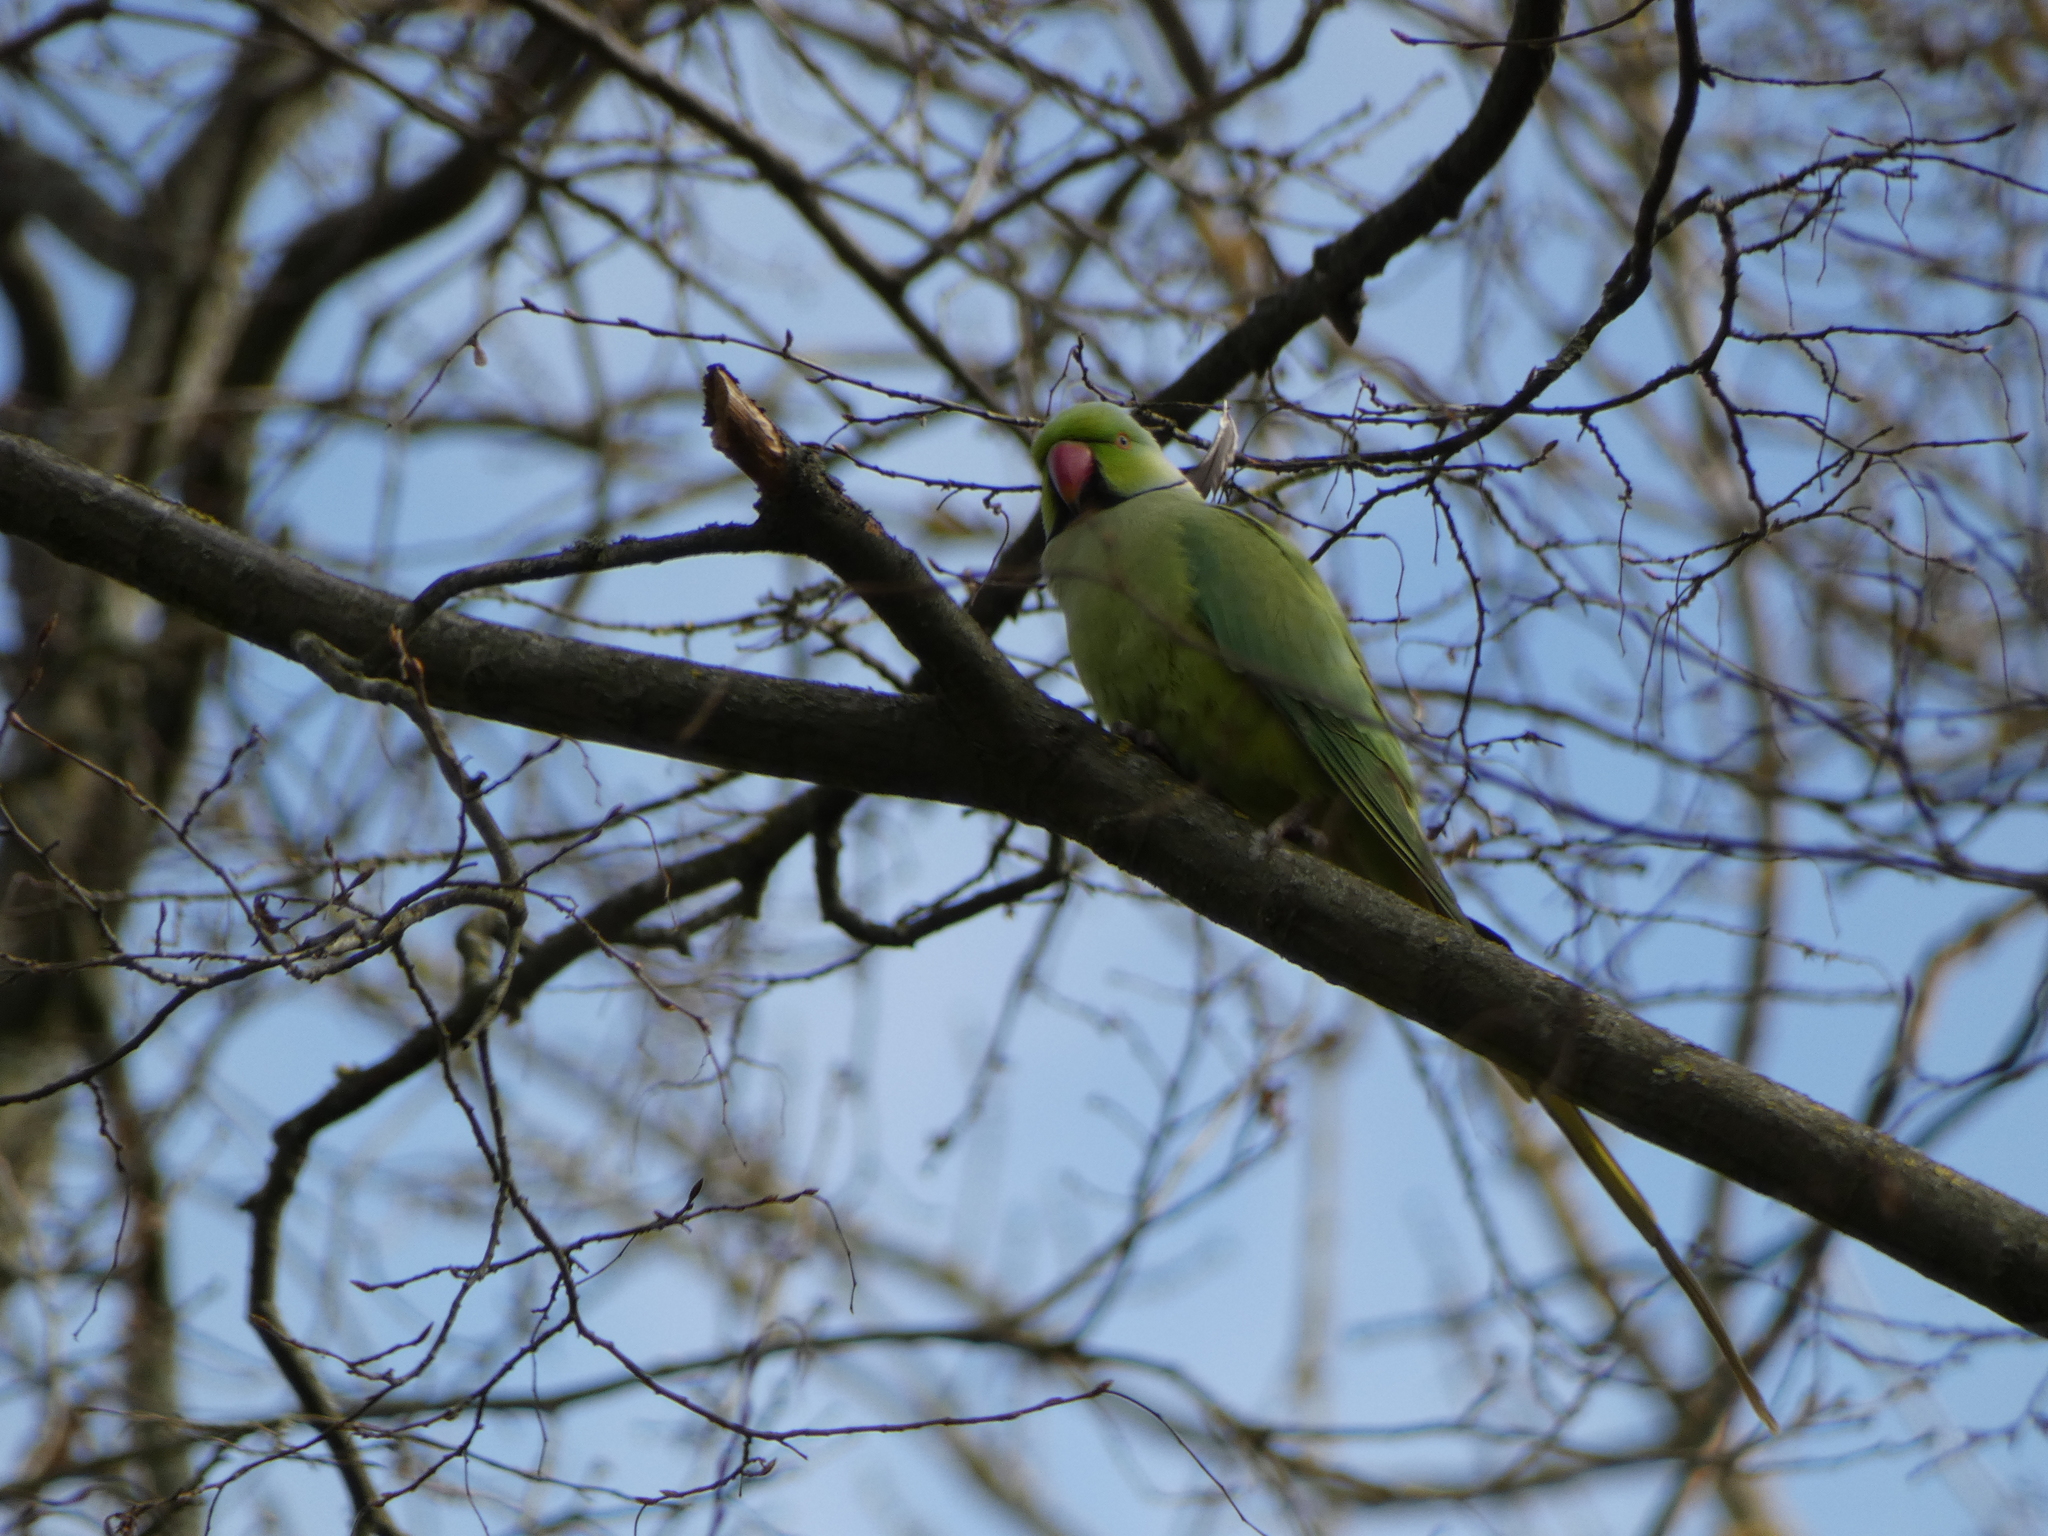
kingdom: Animalia
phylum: Chordata
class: Aves
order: Psittaciformes
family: Psittacidae
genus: Psittacula
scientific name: Psittacula krameri
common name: Rose-ringed parakeet
